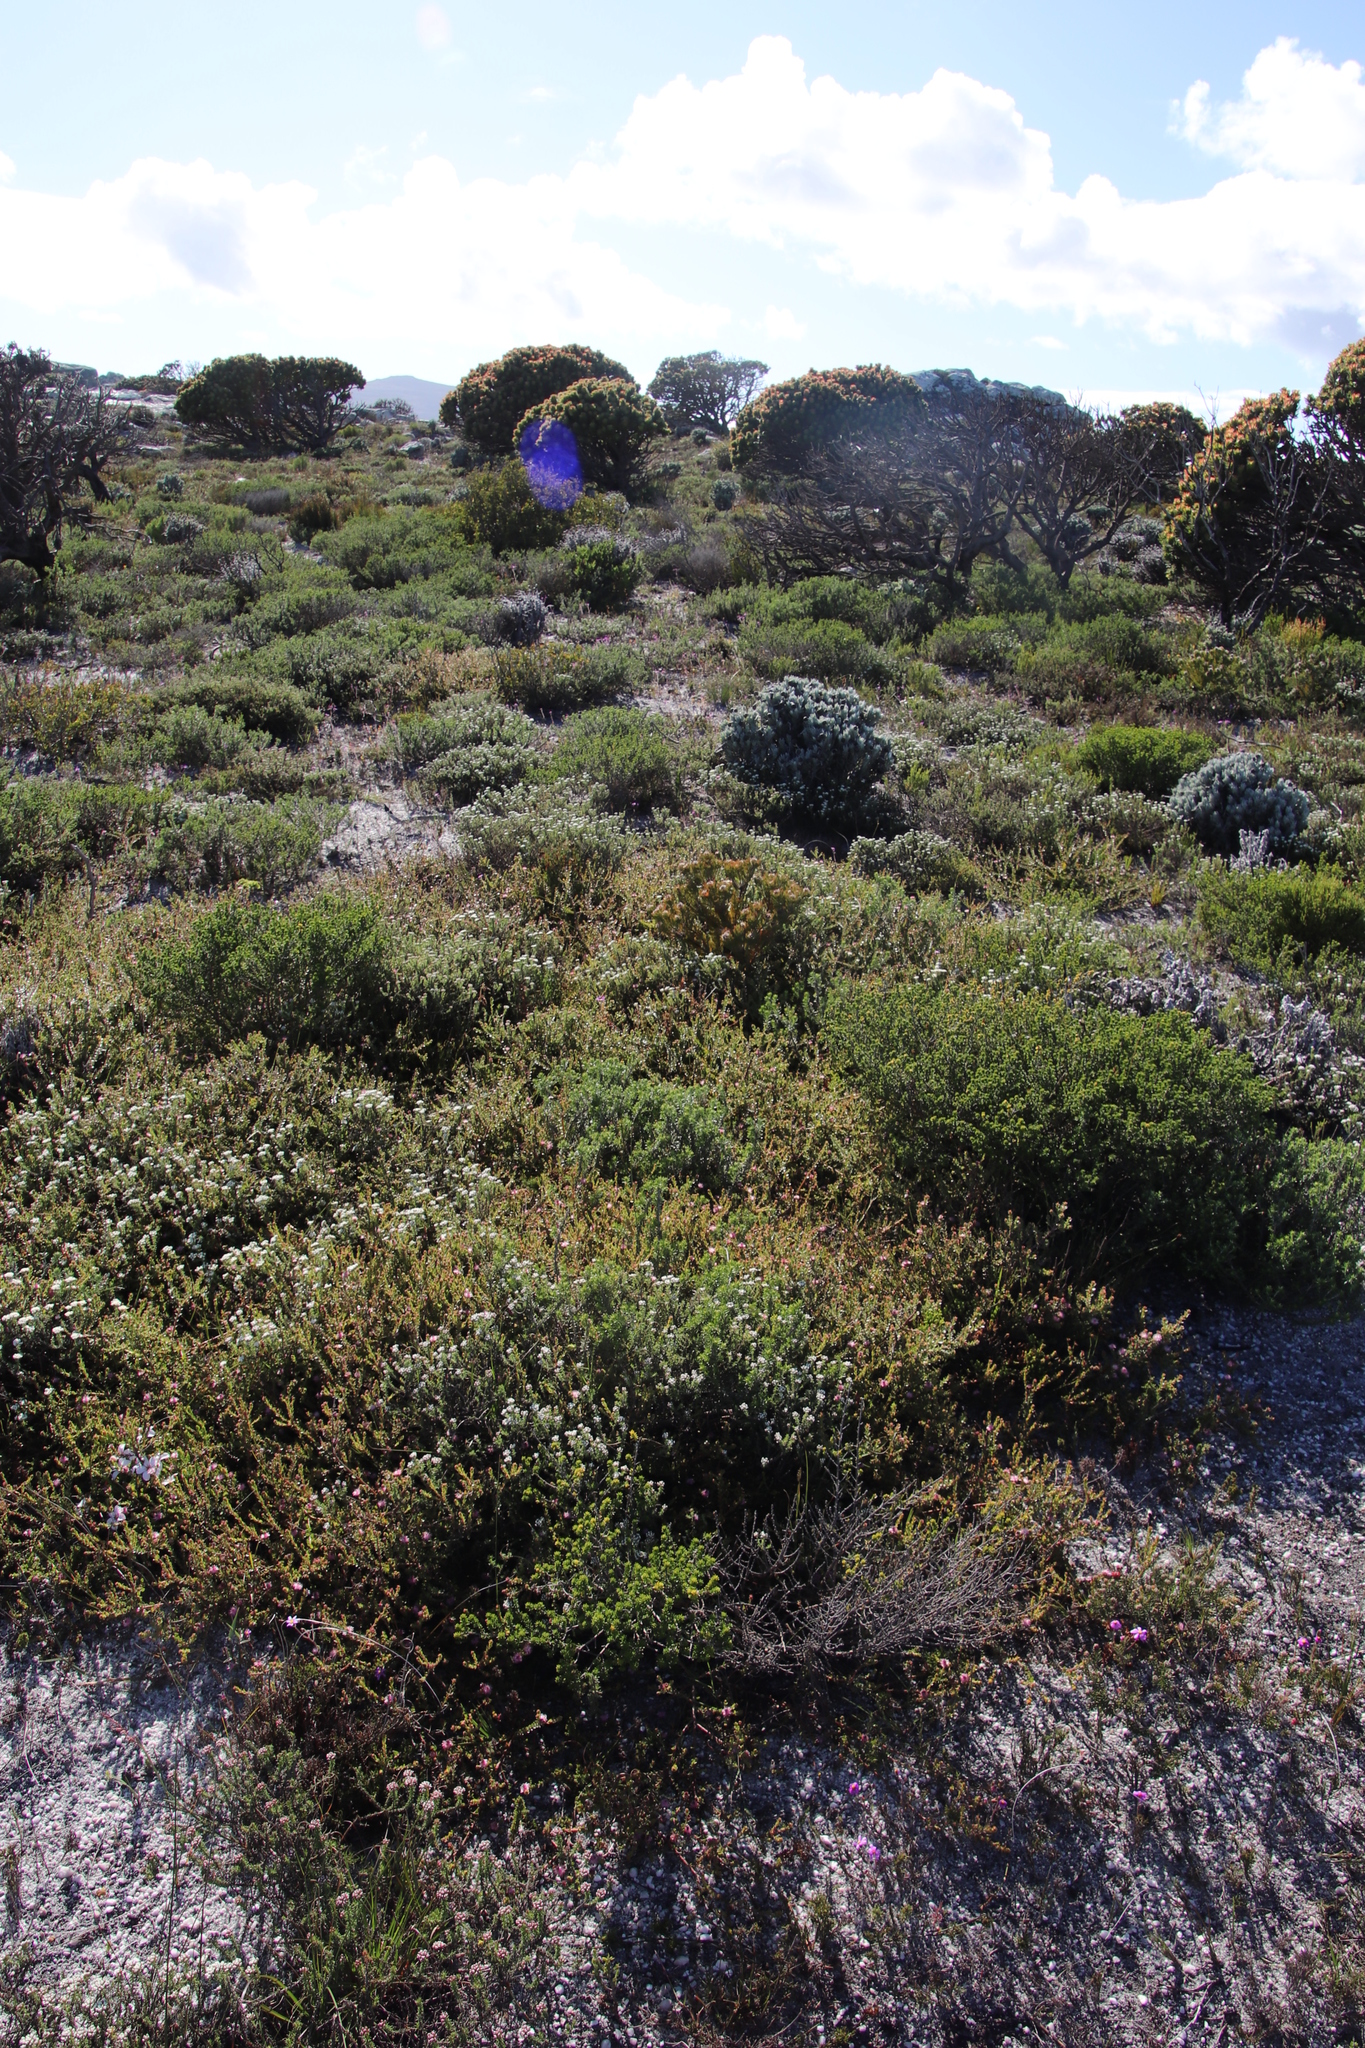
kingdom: Plantae
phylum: Tracheophyta
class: Magnoliopsida
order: Proteales
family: Proteaceae
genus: Diastella
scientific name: Diastella divaricata
